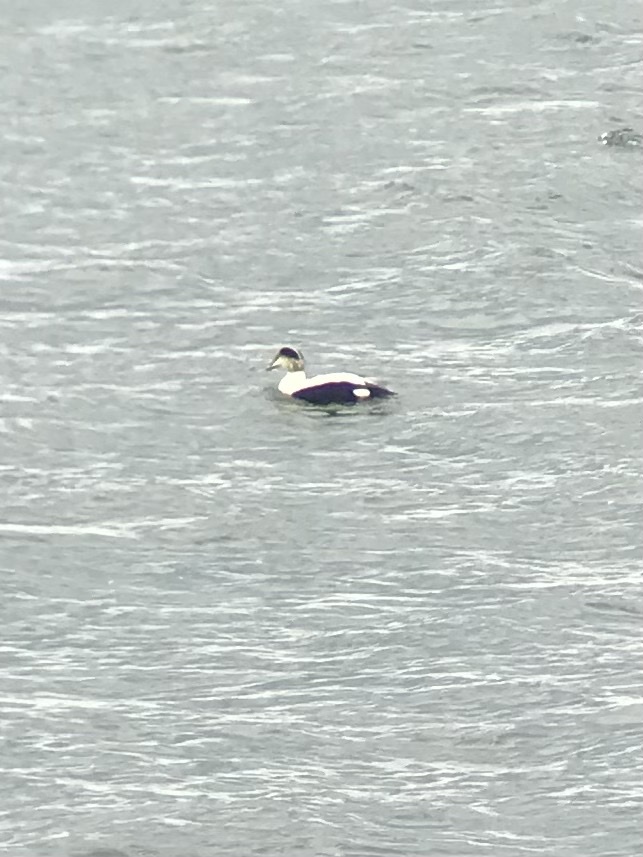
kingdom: Animalia
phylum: Chordata
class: Aves
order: Anseriformes
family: Anatidae
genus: Somateria
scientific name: Somateria mollissima
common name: Common eider
